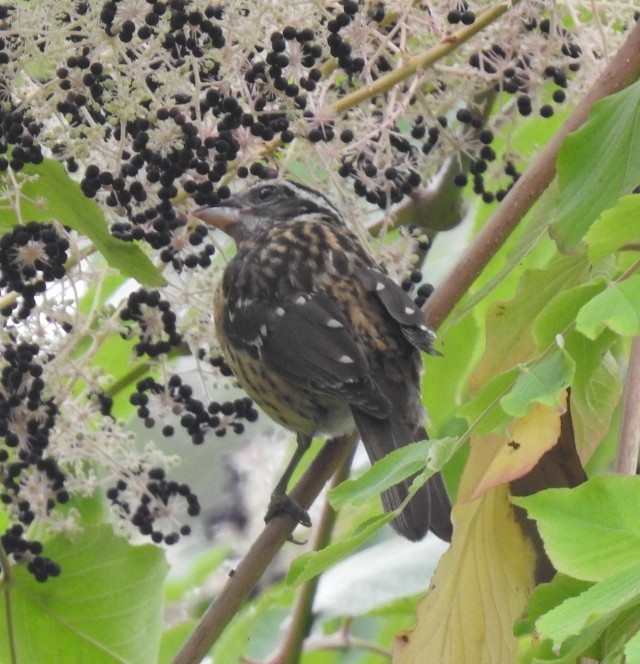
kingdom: Animalia
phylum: Chordata
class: Aves
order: Passeriformes
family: Cardinalidae
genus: Pheucticus
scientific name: Pheucticus melanocephalus
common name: Black-headed grosbeak
